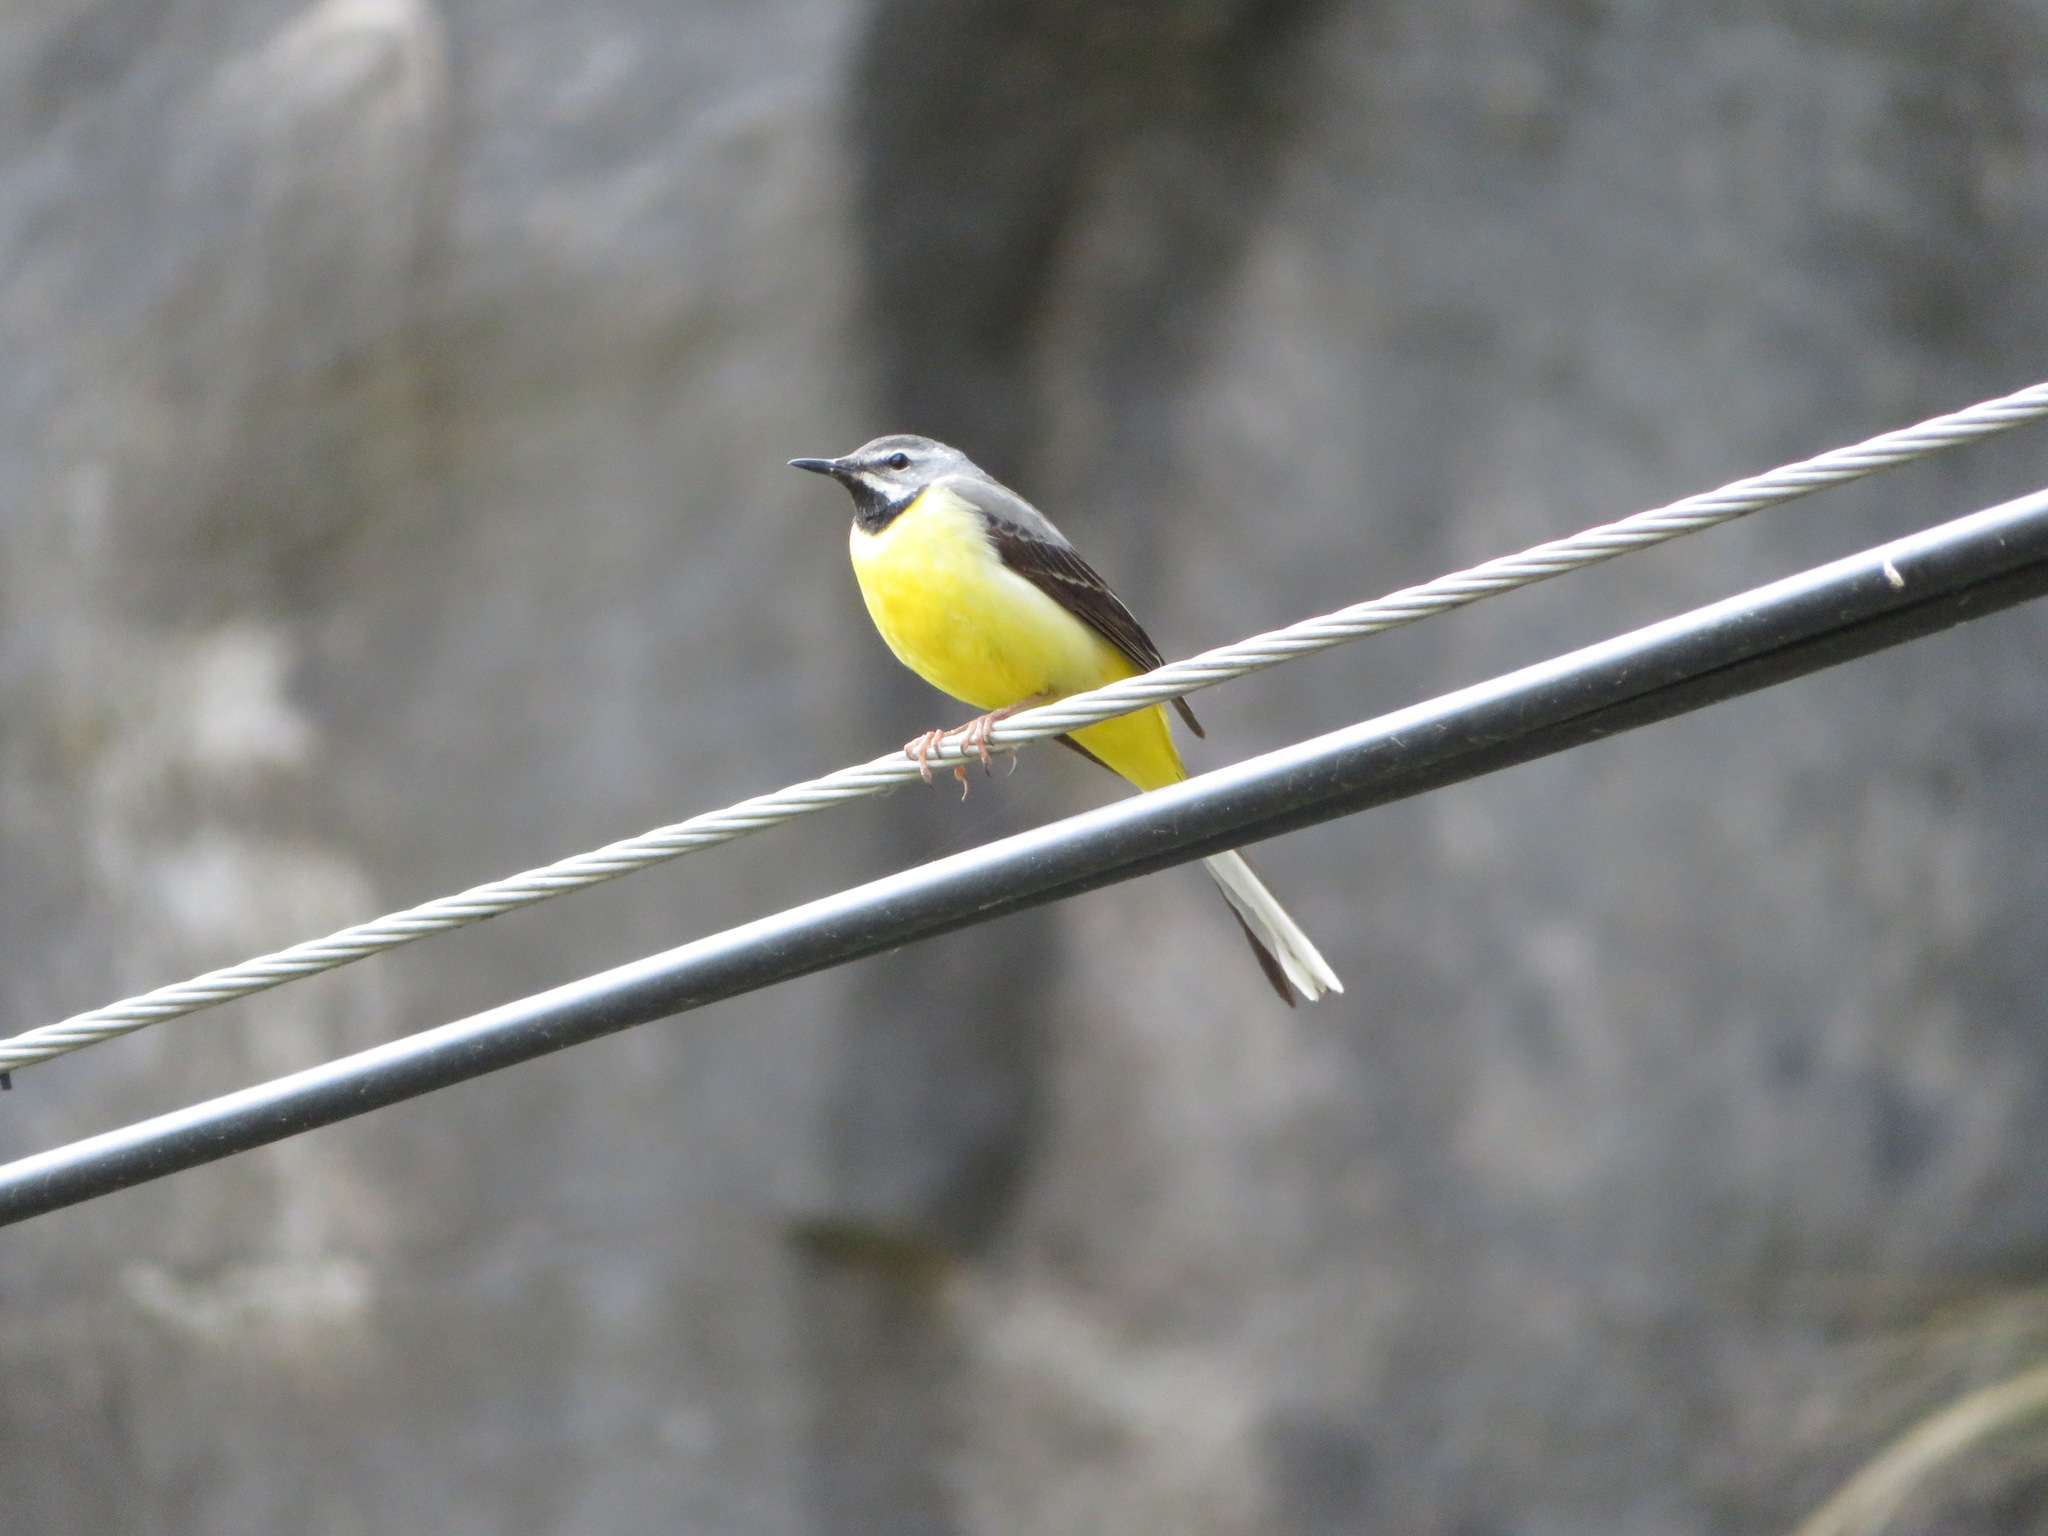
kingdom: Animalia
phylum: Chordata
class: Aves
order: Passeriformes
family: Motacillidae
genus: Motacilla
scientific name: Motacilla cinerea
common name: Grey wagtail
